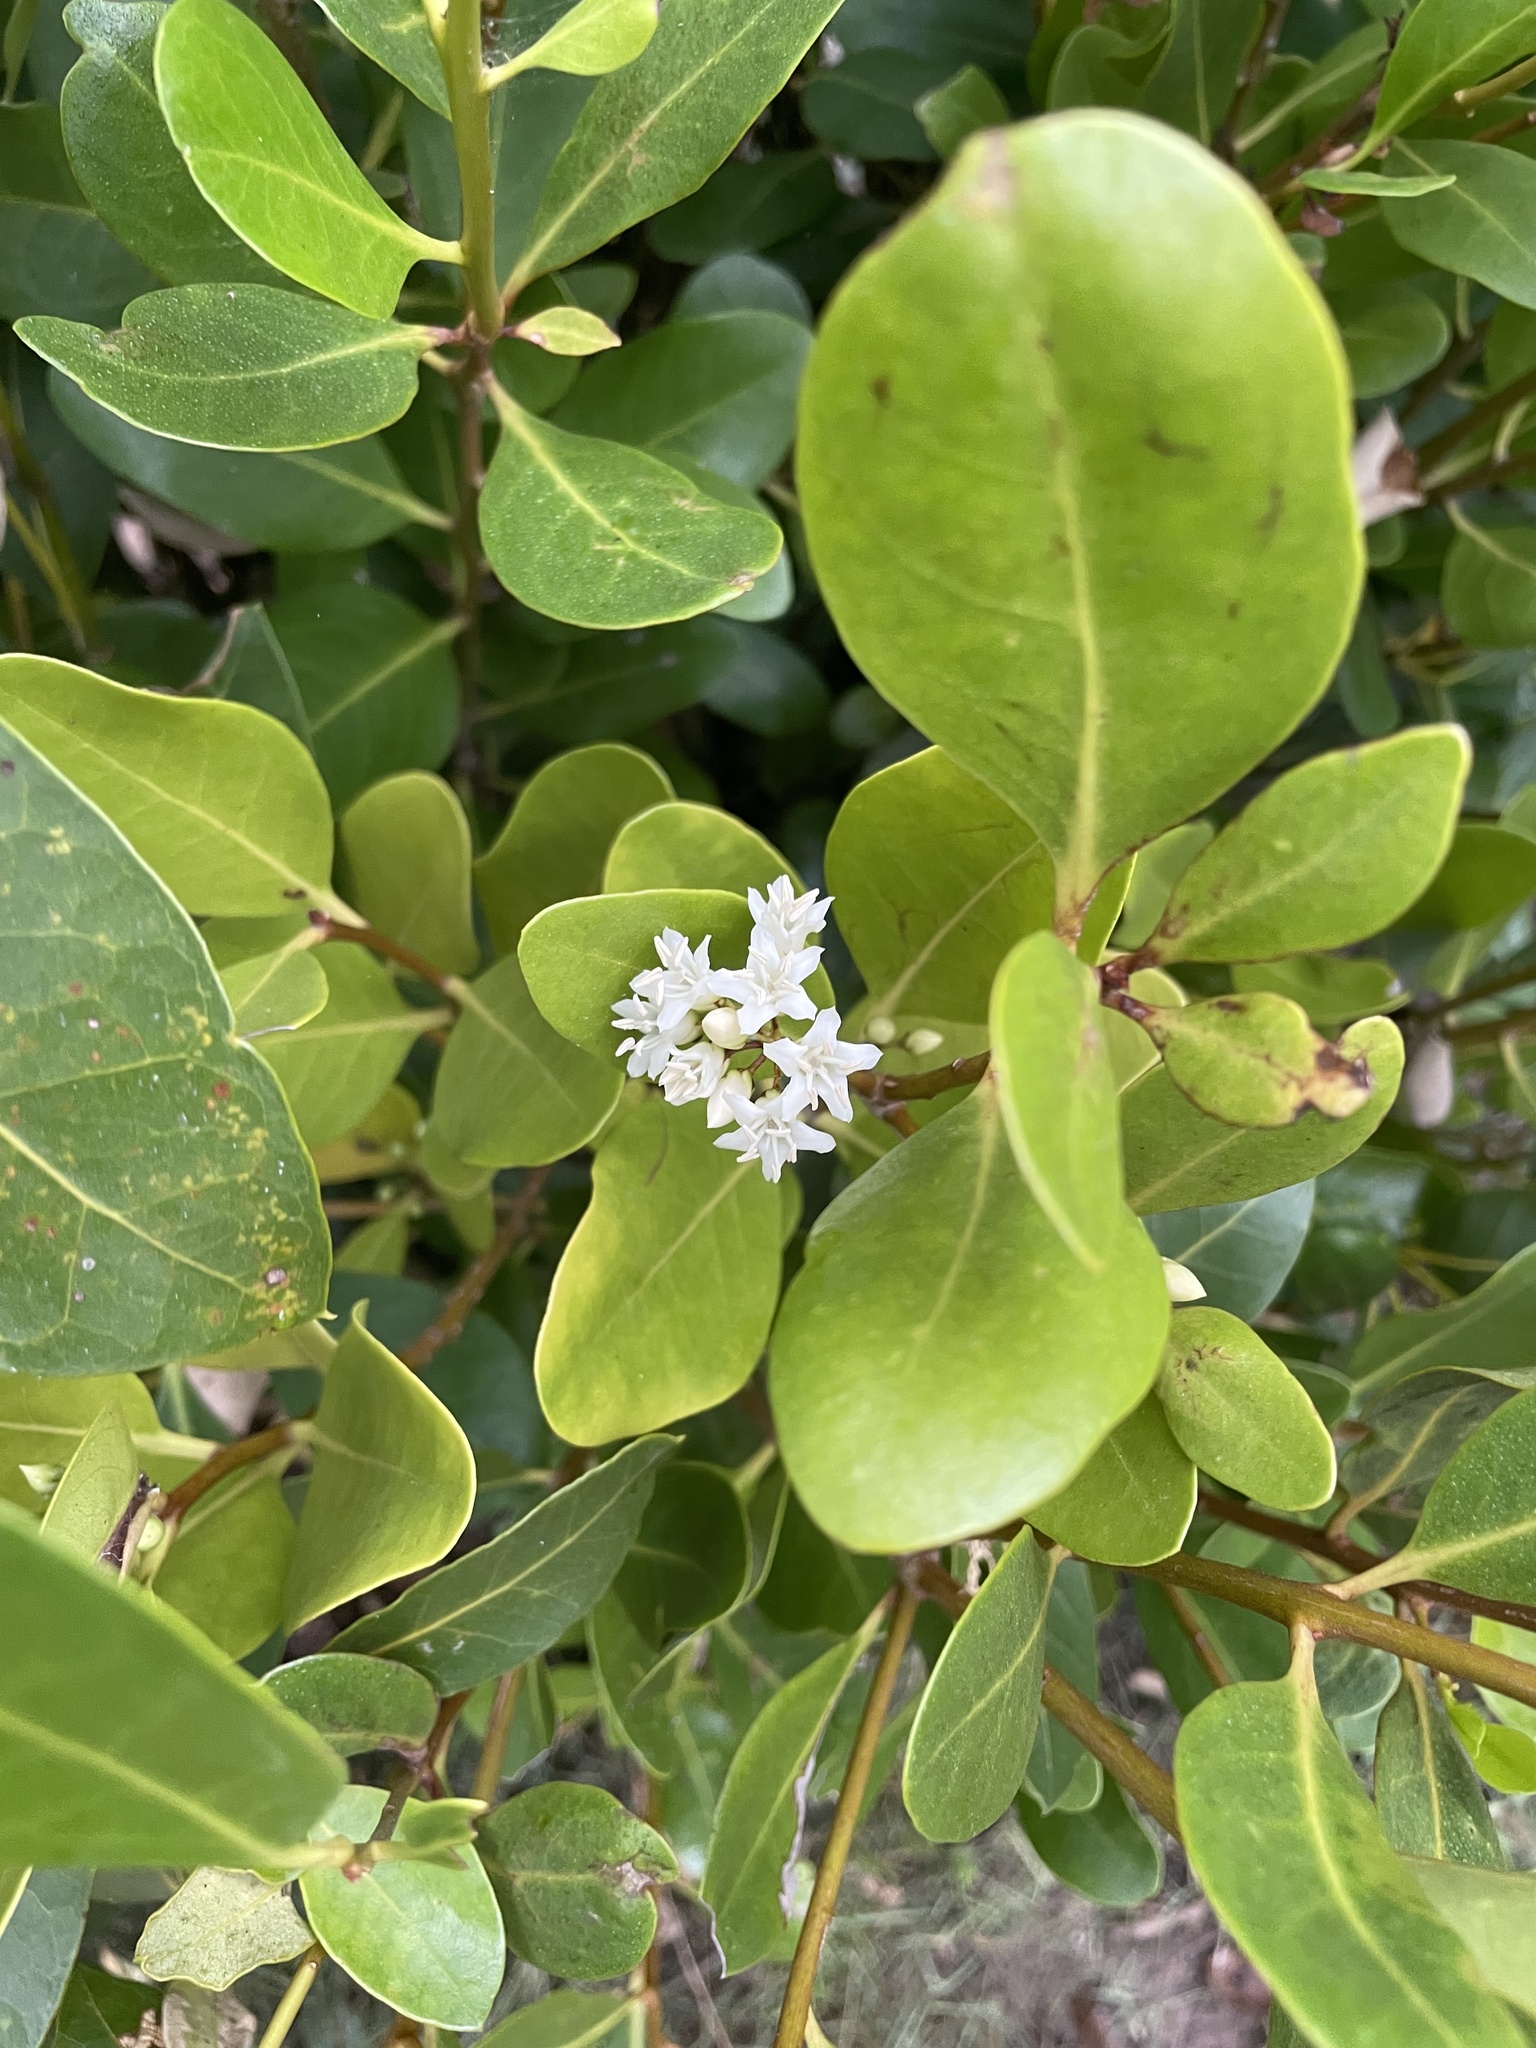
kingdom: Plantae
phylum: Tracheophyta
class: Magnoliopsida
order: Ericales
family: Primulaceae
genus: Aegiceras
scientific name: Aegiceras corniculatum
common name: River mangrove
